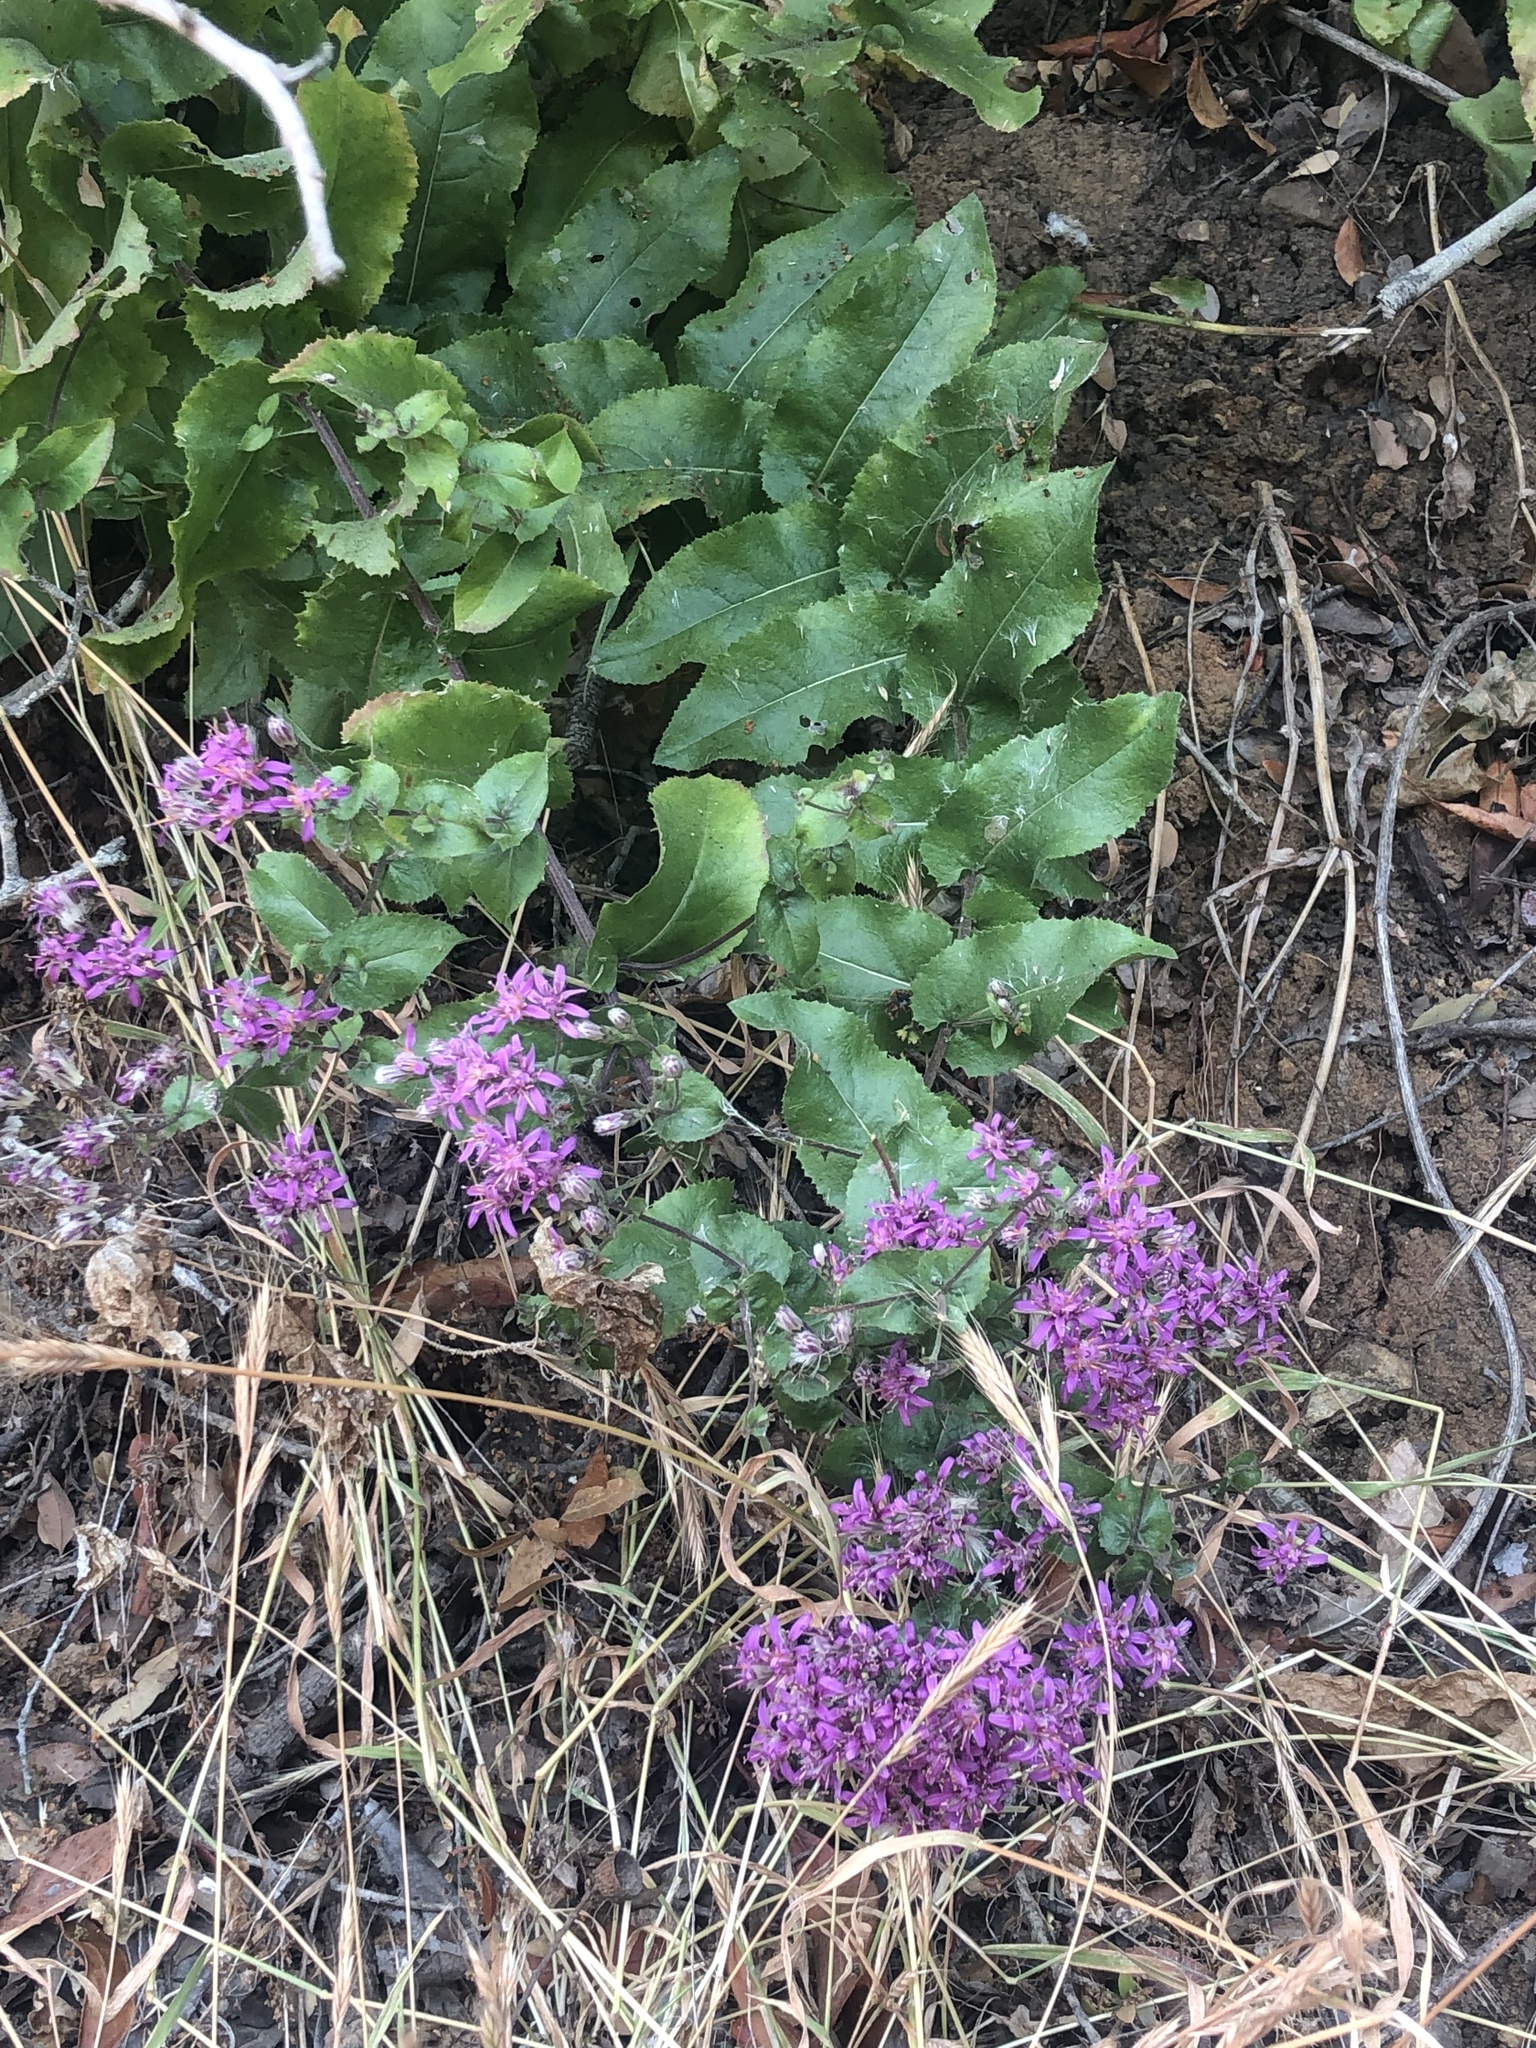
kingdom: Plantae
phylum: Tracheophyta
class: Magnoliopsida
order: Asterales
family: Asteraceae
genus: Acourtia
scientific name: Acourtia microcephala
